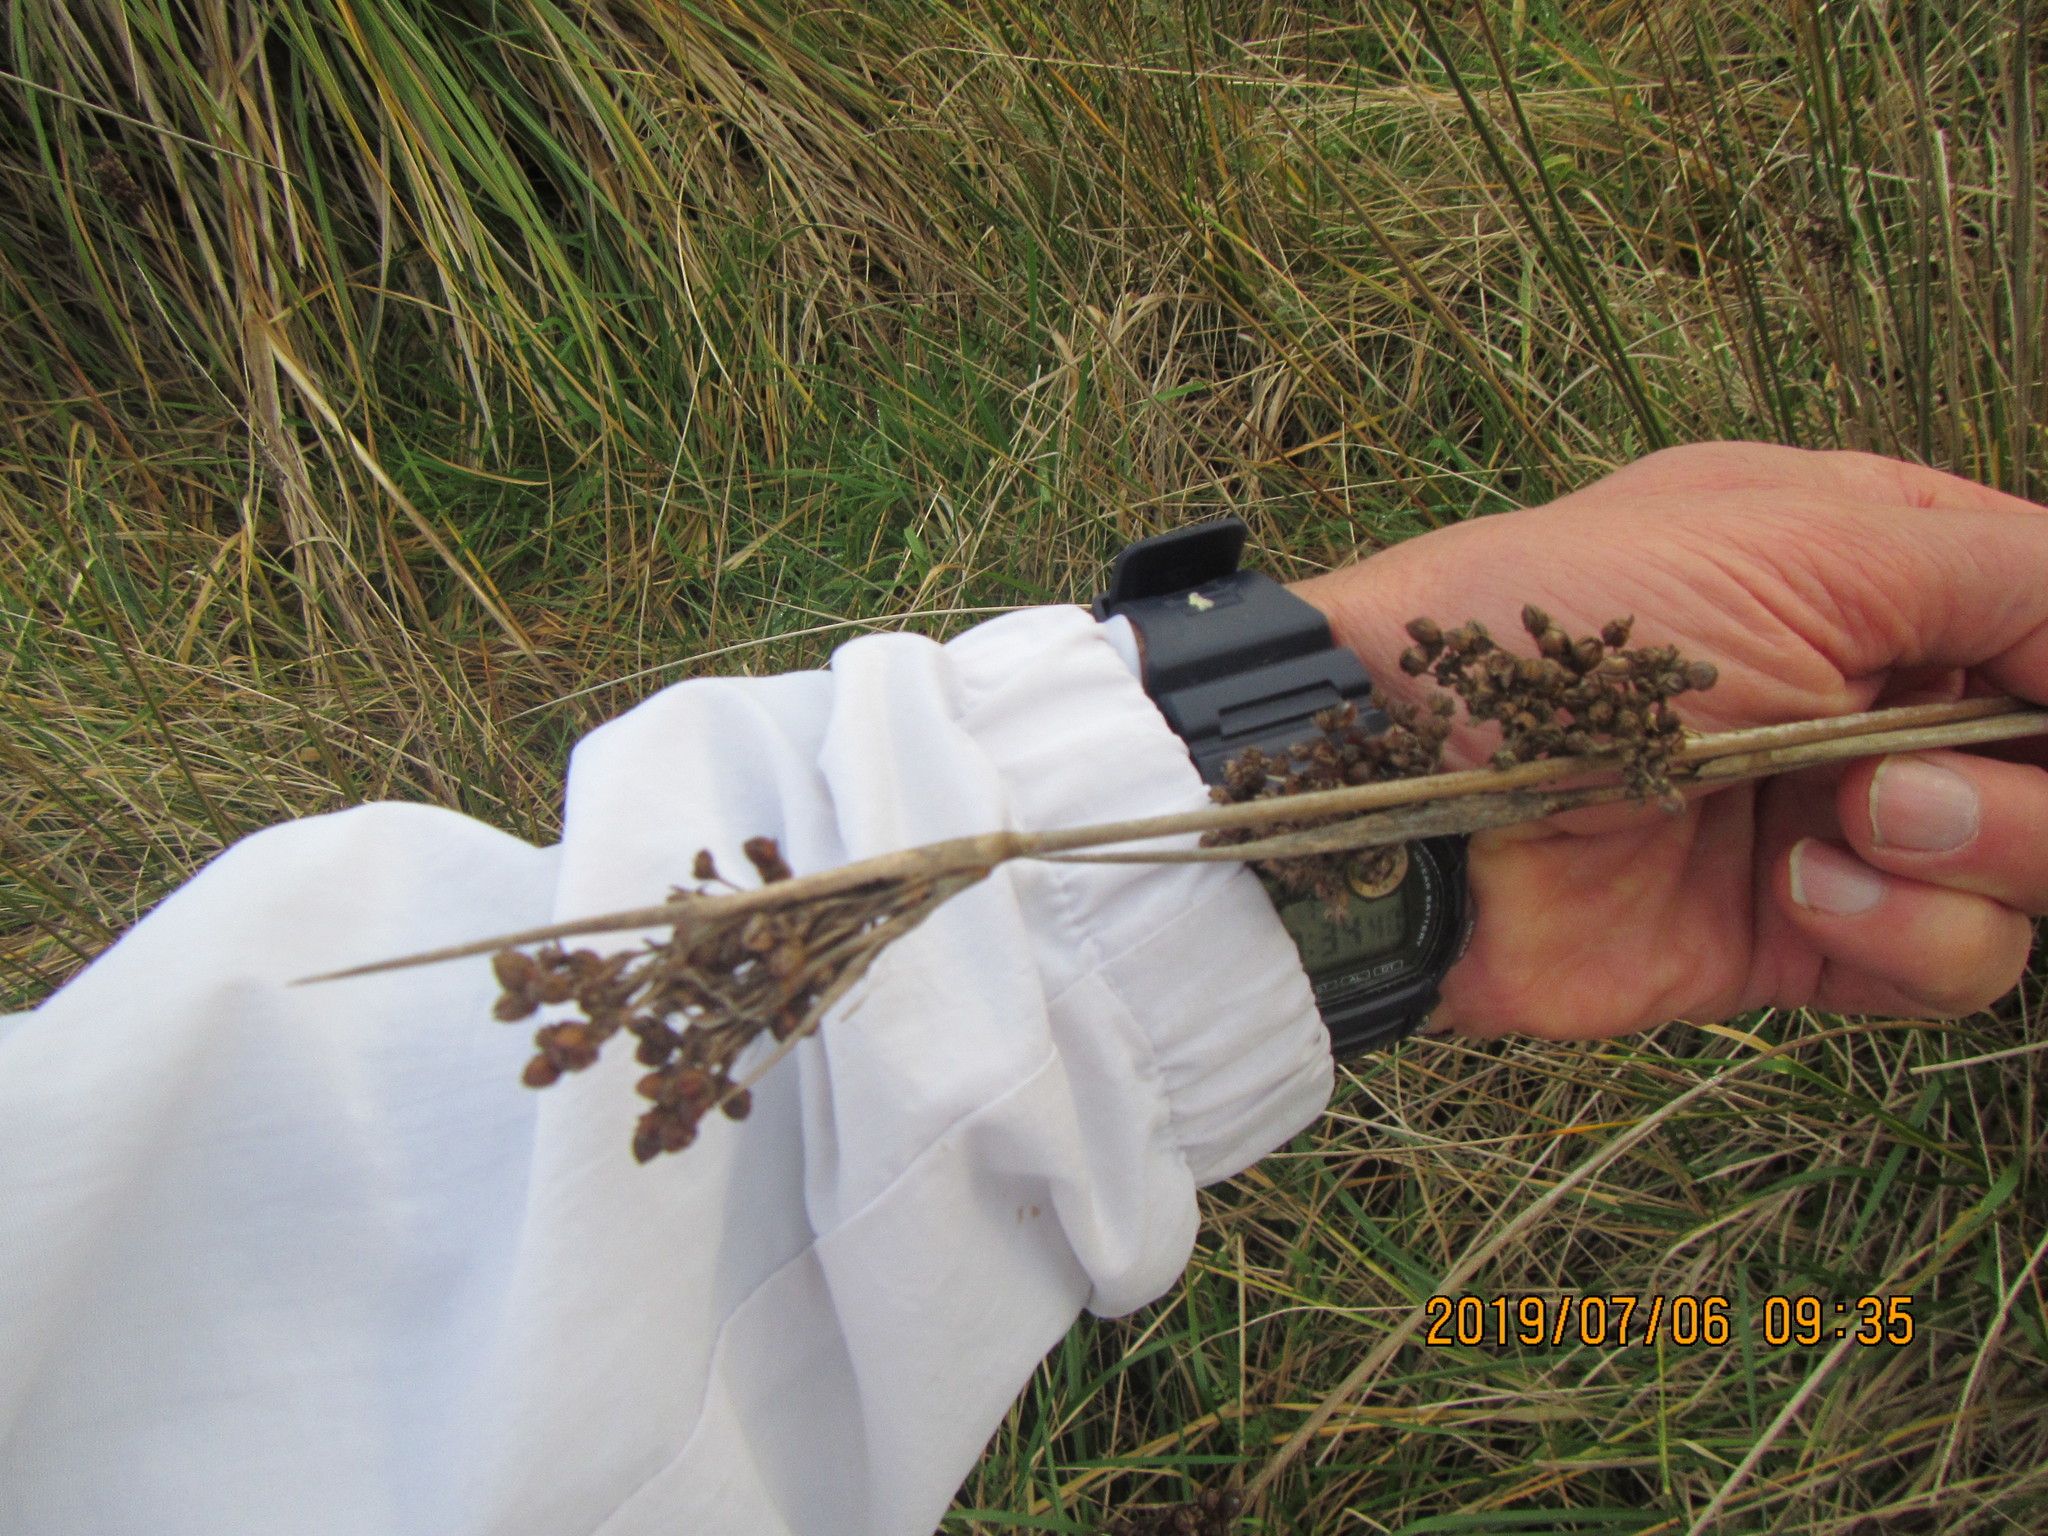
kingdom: Plantae
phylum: Tracheophyta
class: Liliopsida
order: Poales
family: Juncaceae
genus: Juncus
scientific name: Juncus acutus
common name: Sharp rush
